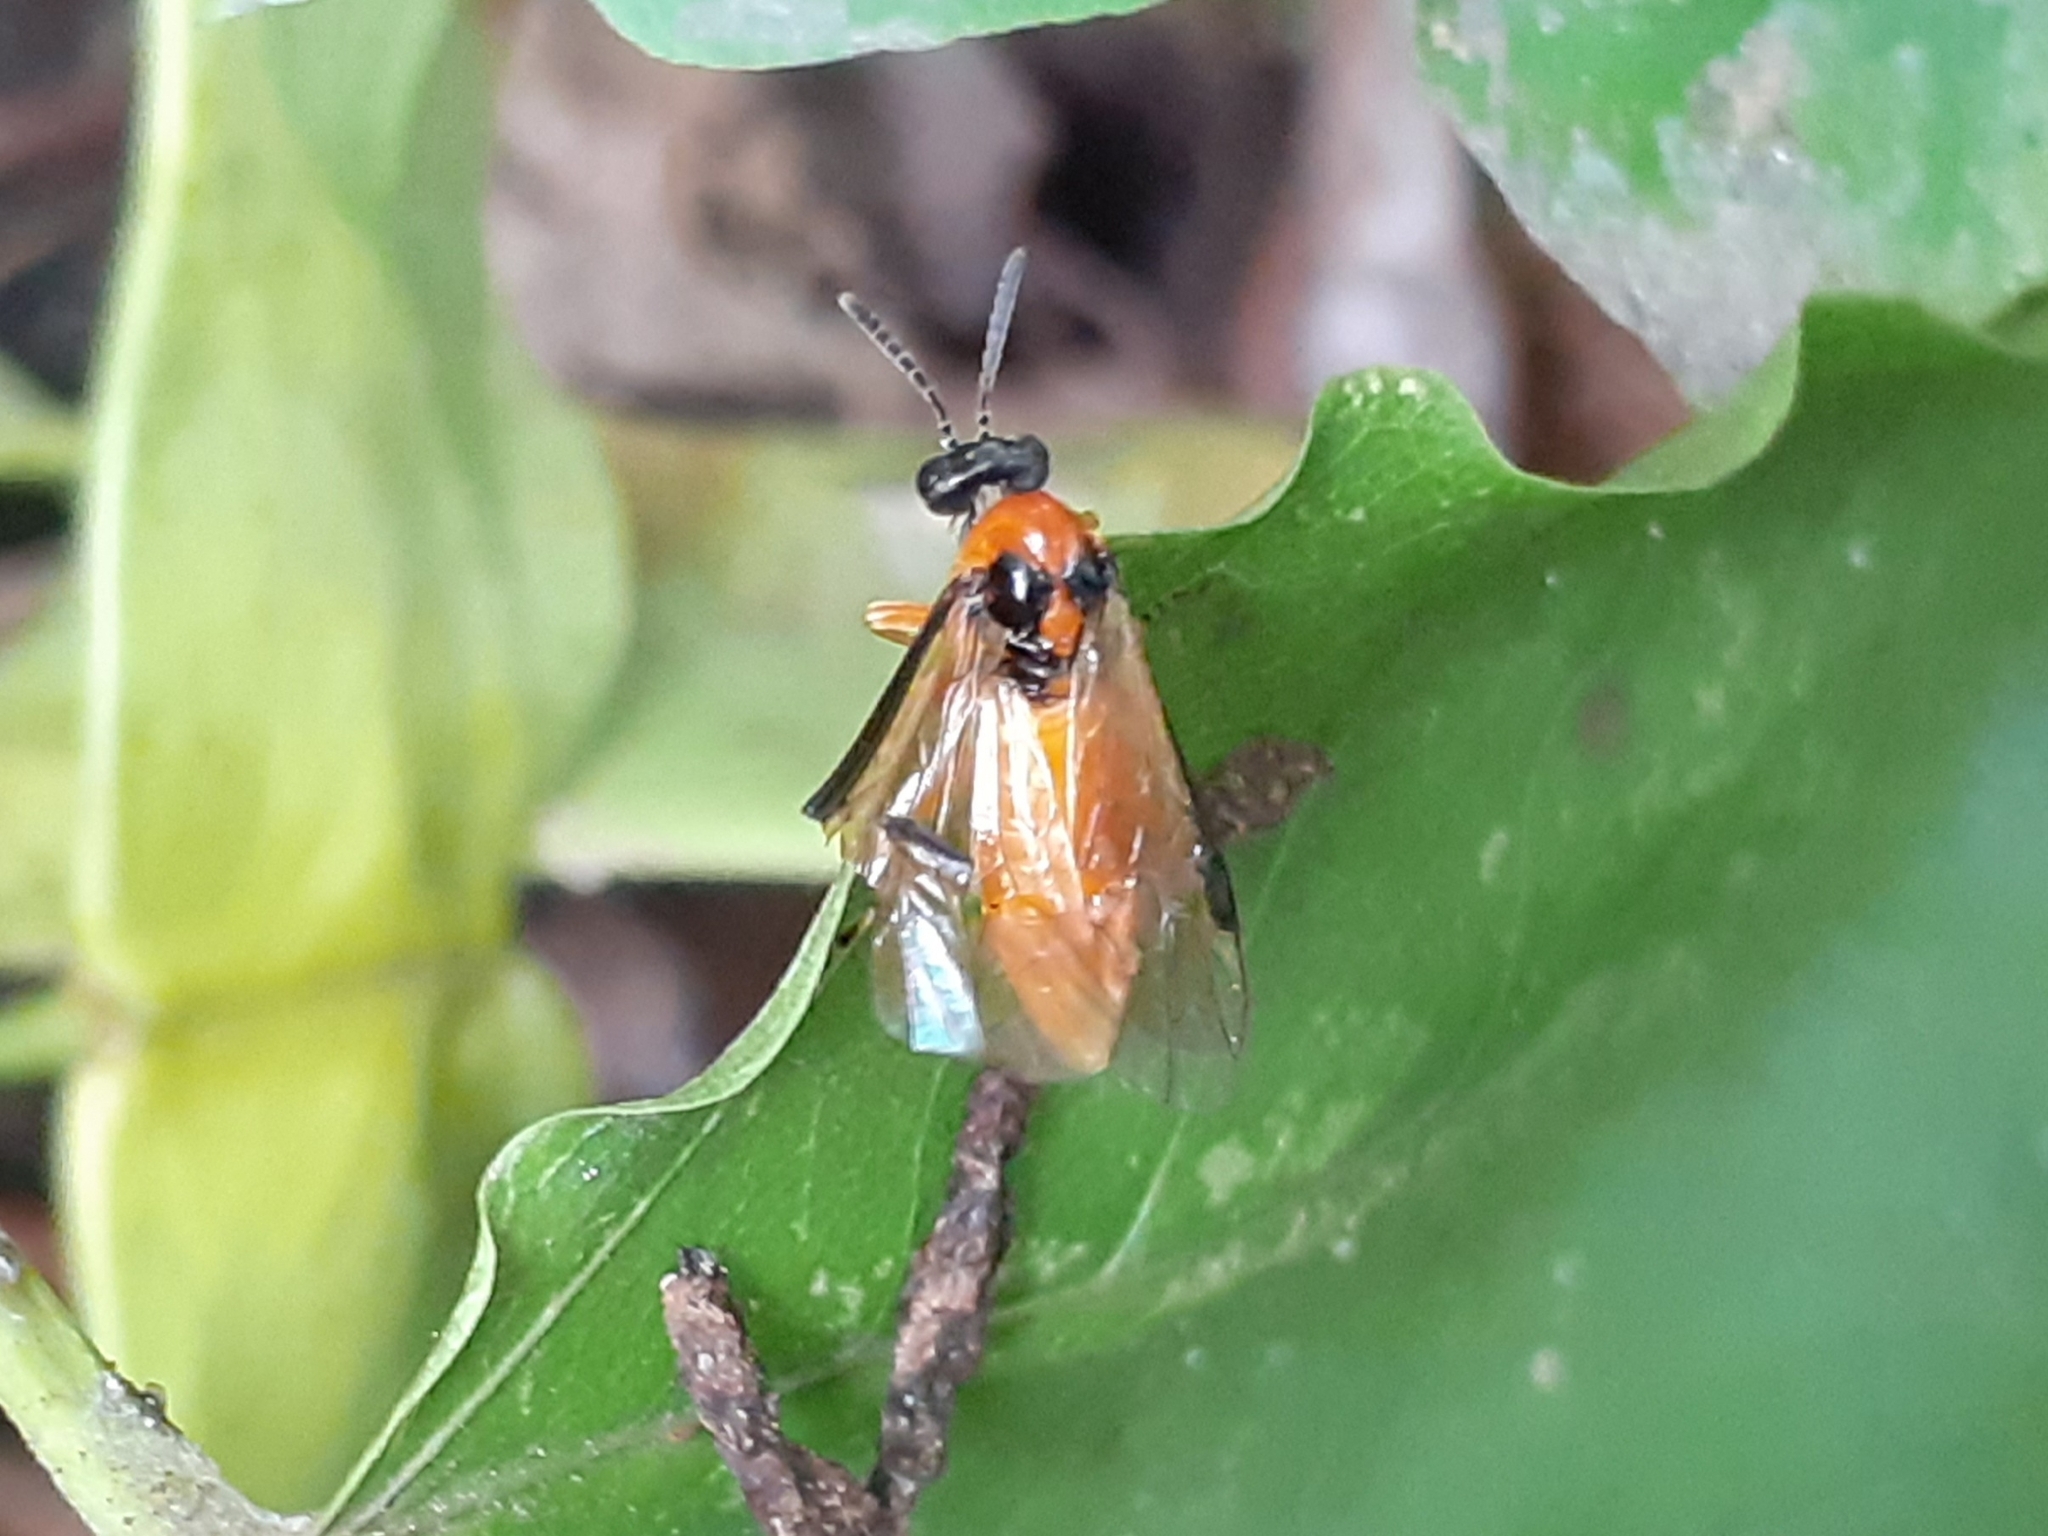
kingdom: Animalia
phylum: Arthropoda
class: Insecta
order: Hymenoptera
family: Tenthredinidae
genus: Athalia
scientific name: Athalia rosae
